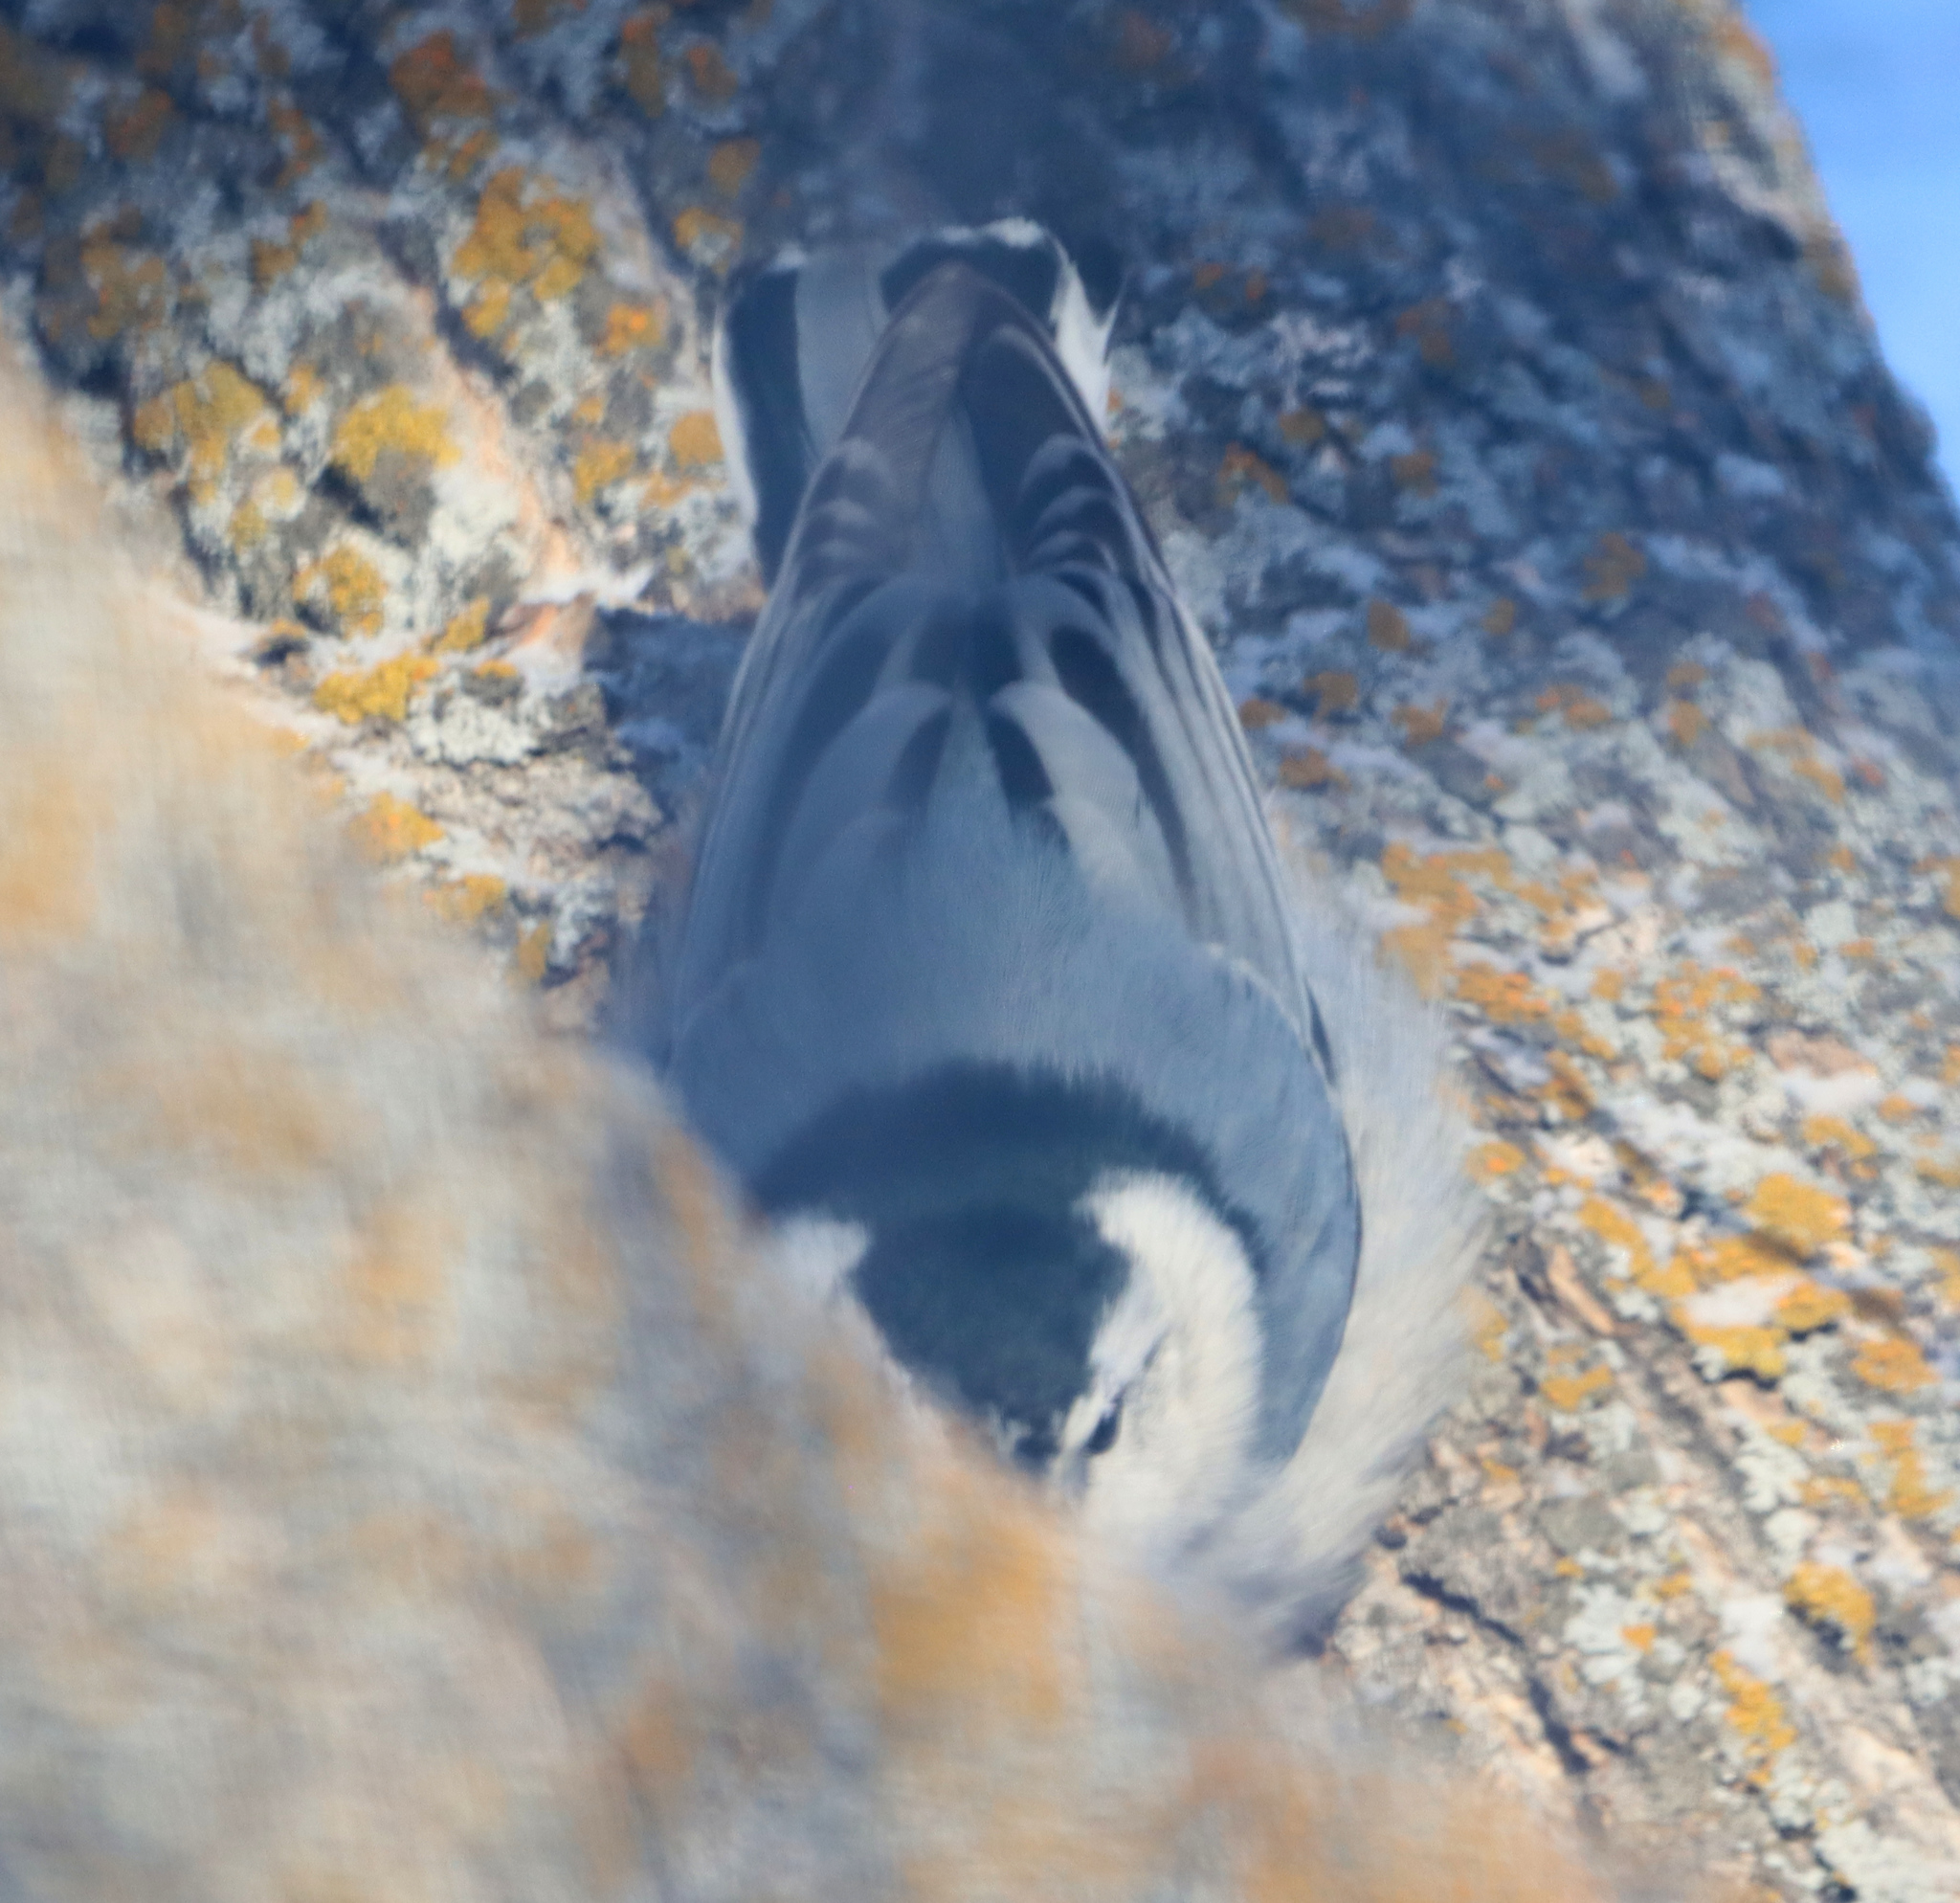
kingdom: Animalia
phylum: Chordata
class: Aves
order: Passeriformes
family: Sittidae
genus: Sitta
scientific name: Sitta carolinensis
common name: White-breasted nuthatch
